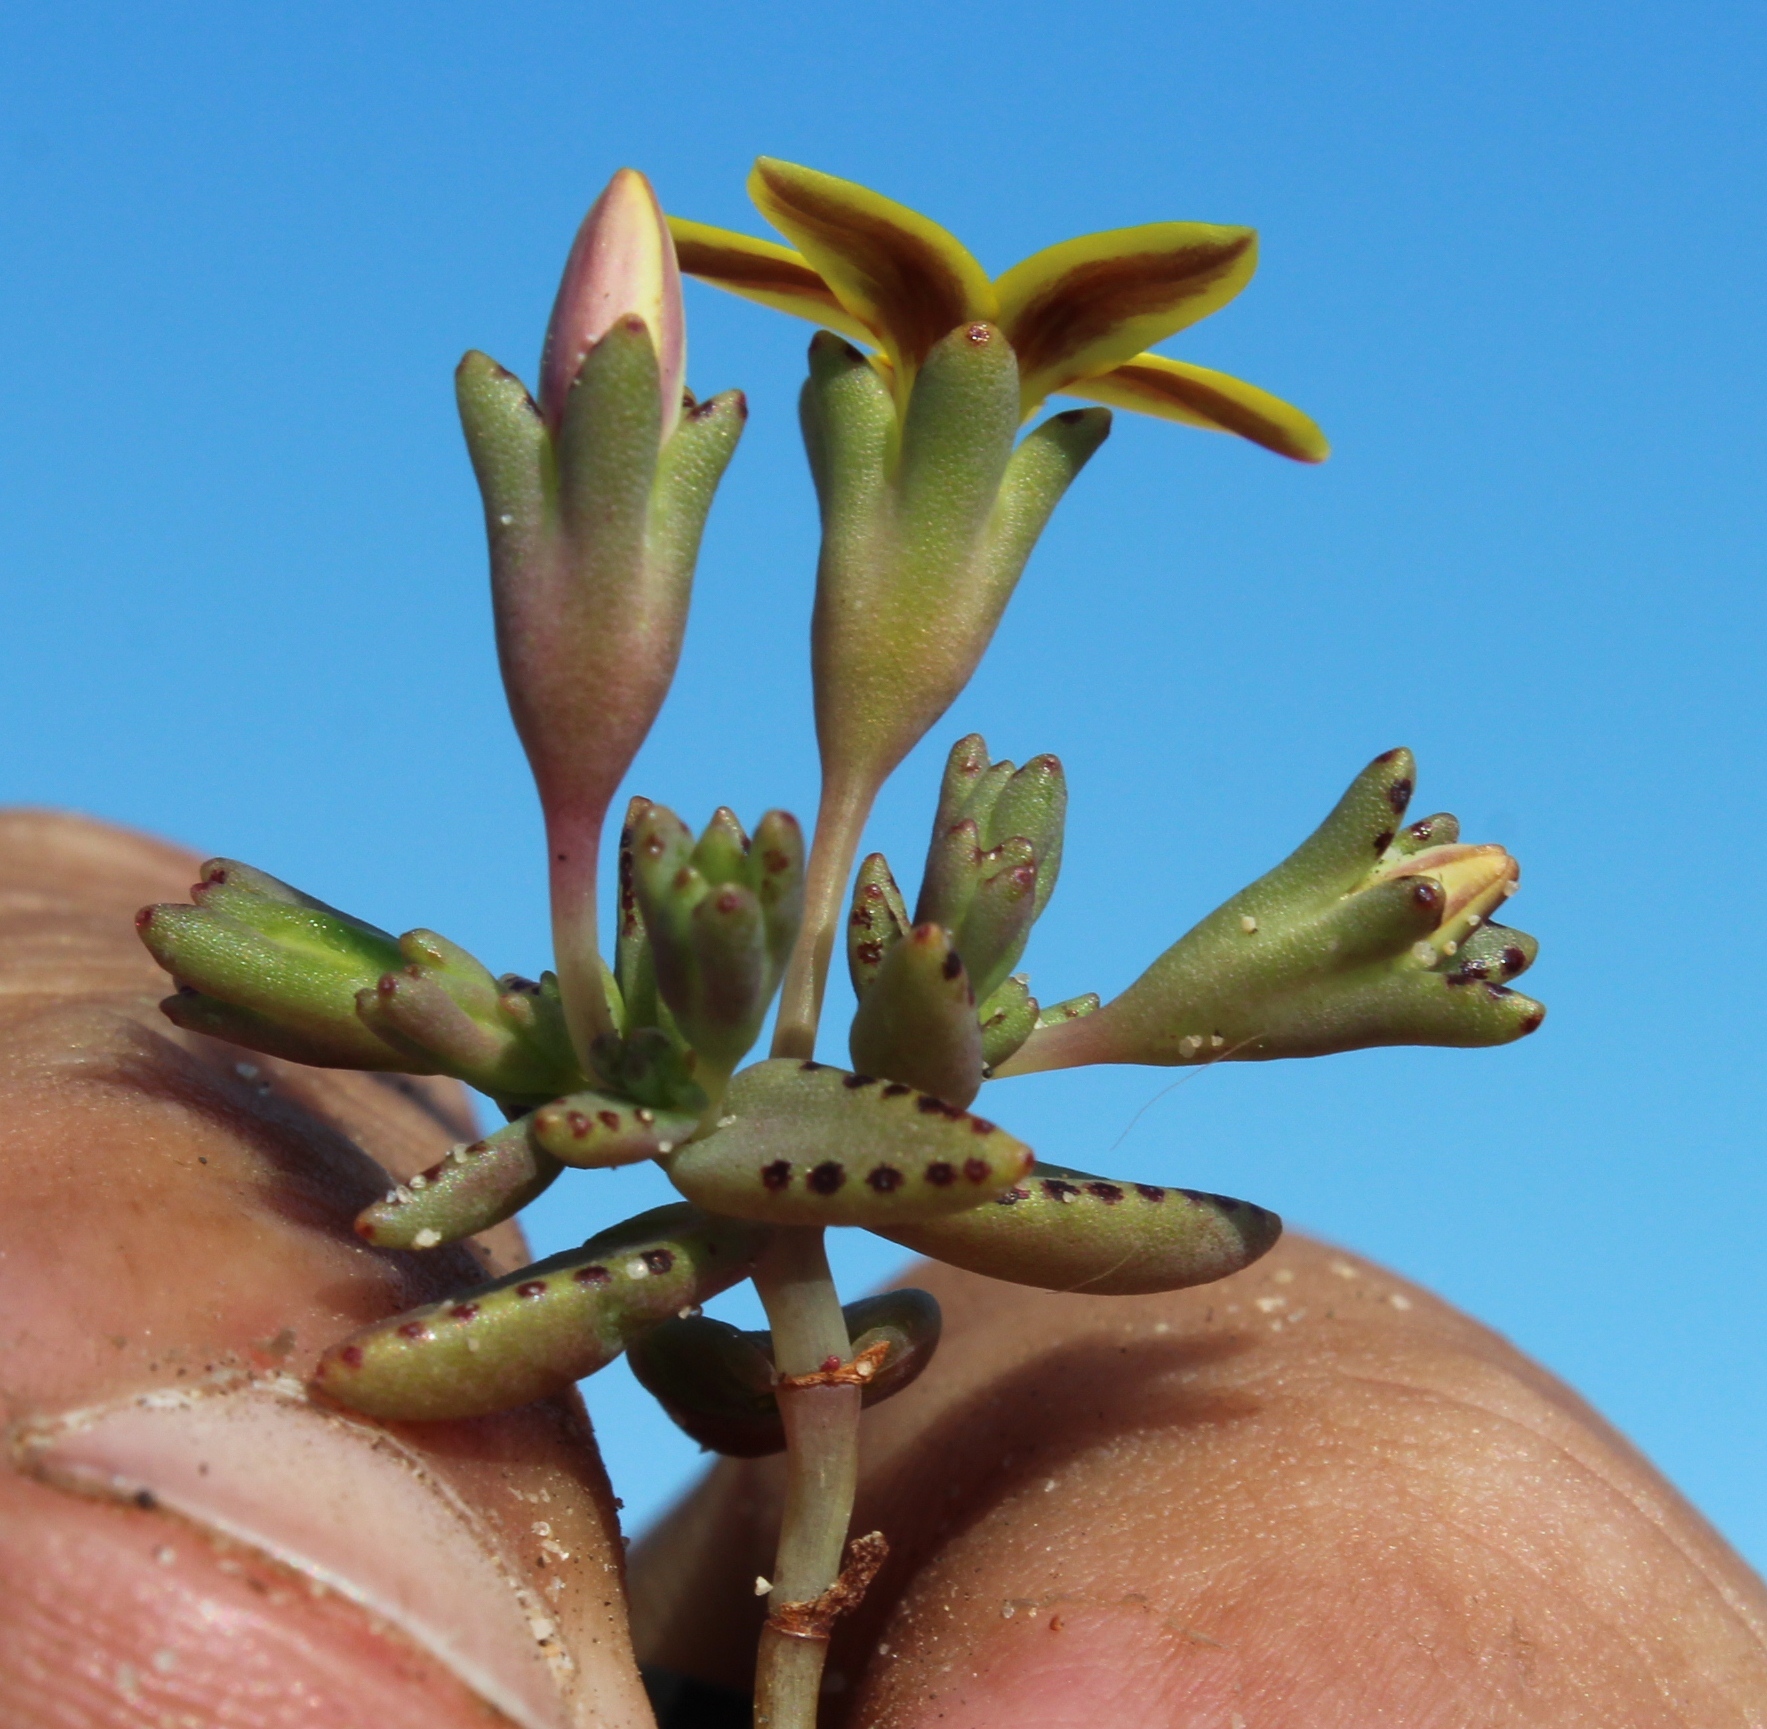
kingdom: Plantae
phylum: Tracheophyta
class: Magnoliopsida
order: Saxifragales
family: Crassulaceae
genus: Crassula
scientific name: Crassula dichotoma
